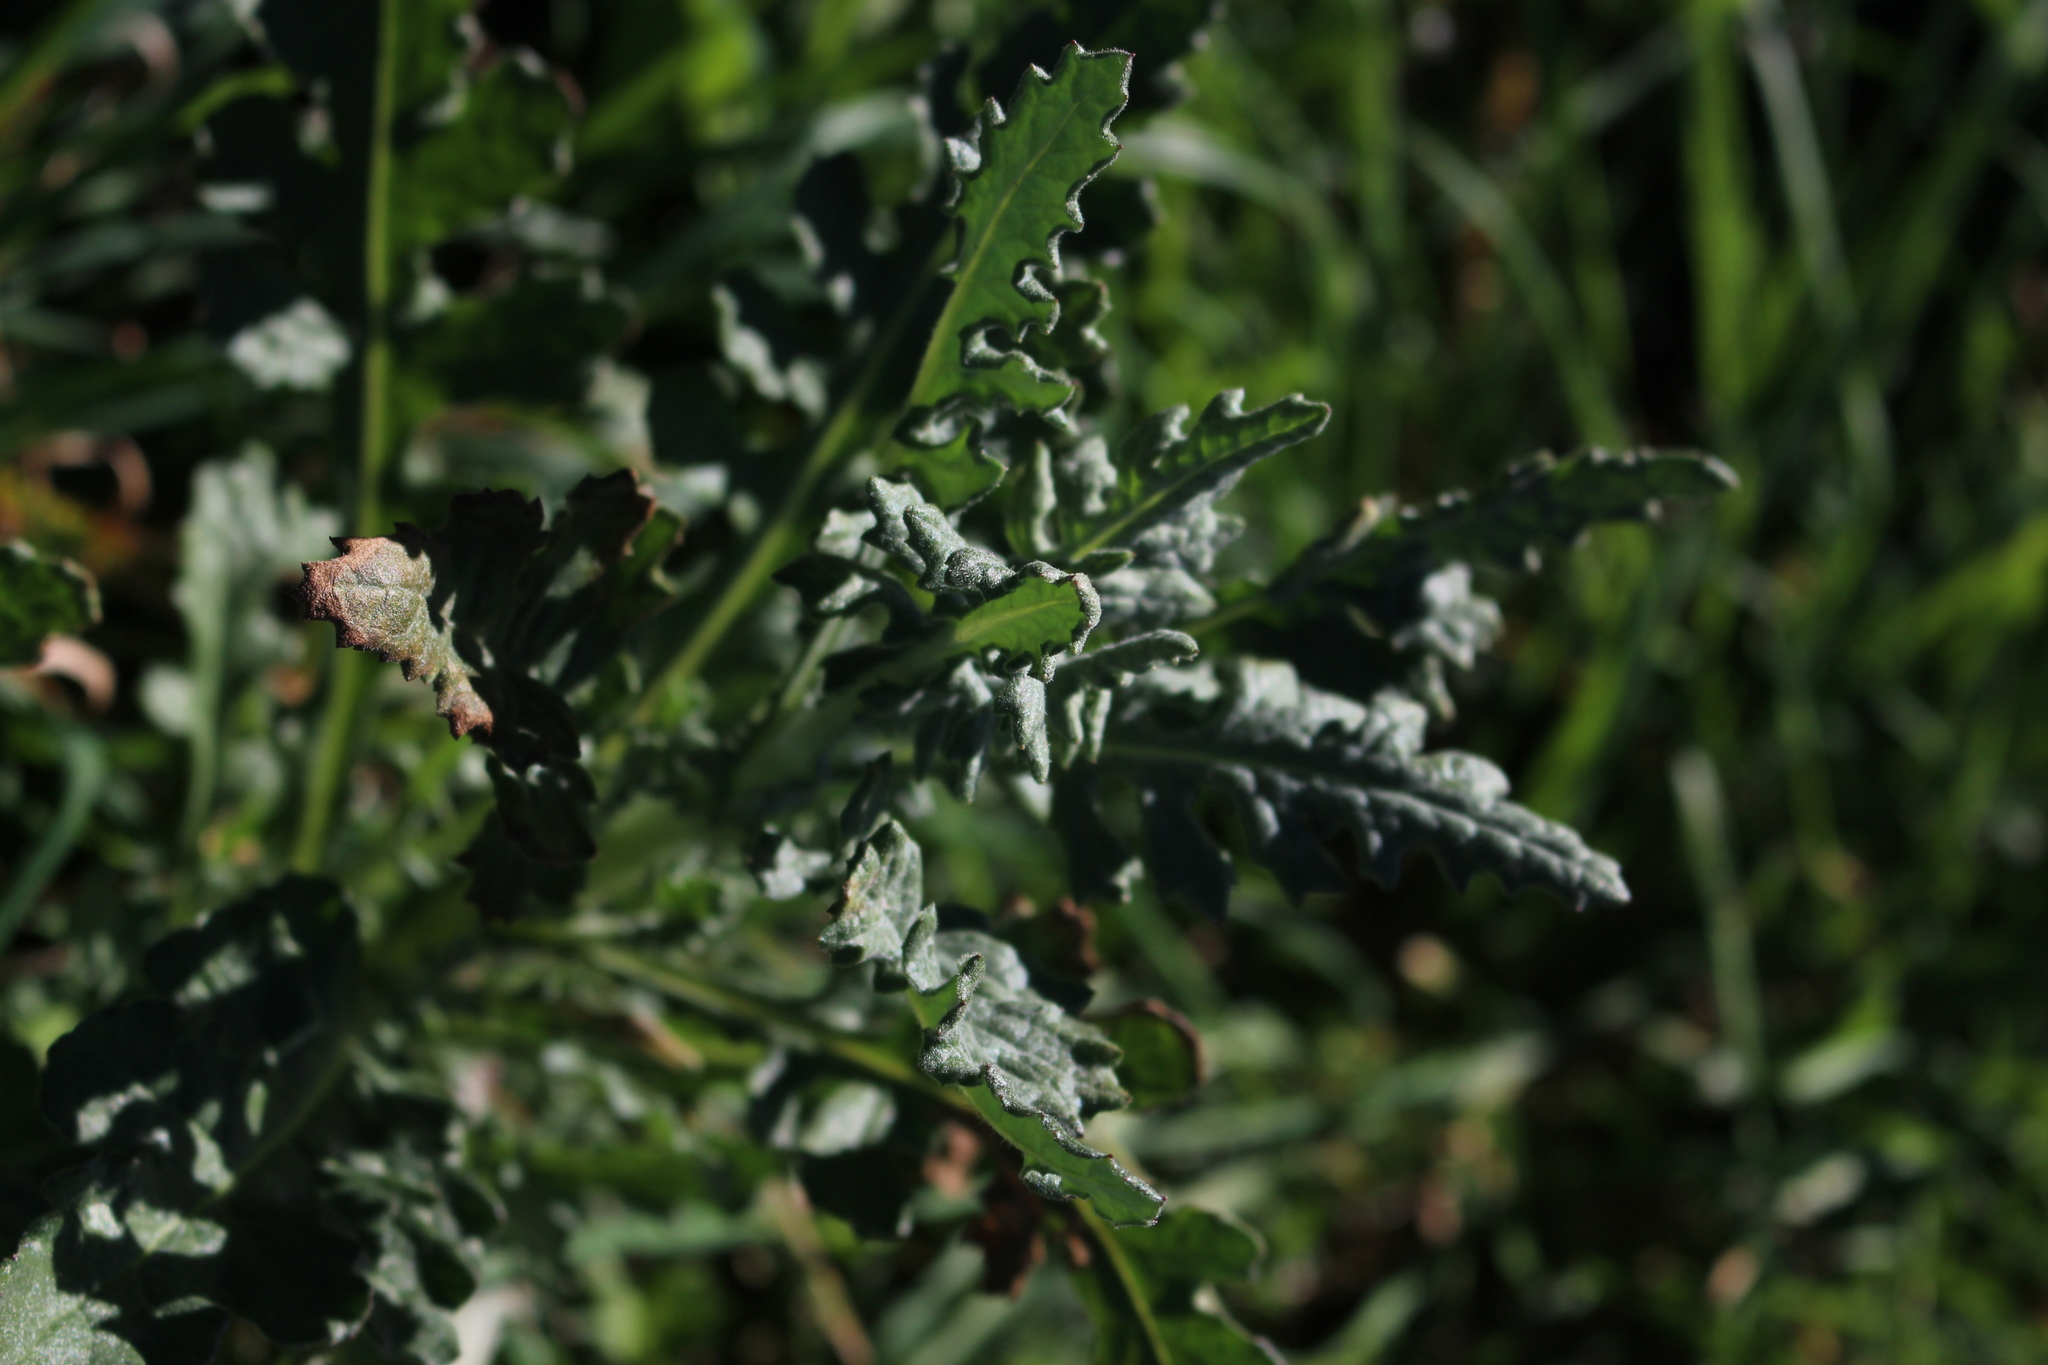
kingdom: Plantae
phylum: Tracheophyta
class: Magnoliopsida
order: Asterales
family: Asteraceae
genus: Senecio
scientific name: Senecio glomeratus
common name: Cutleaf burnweed
